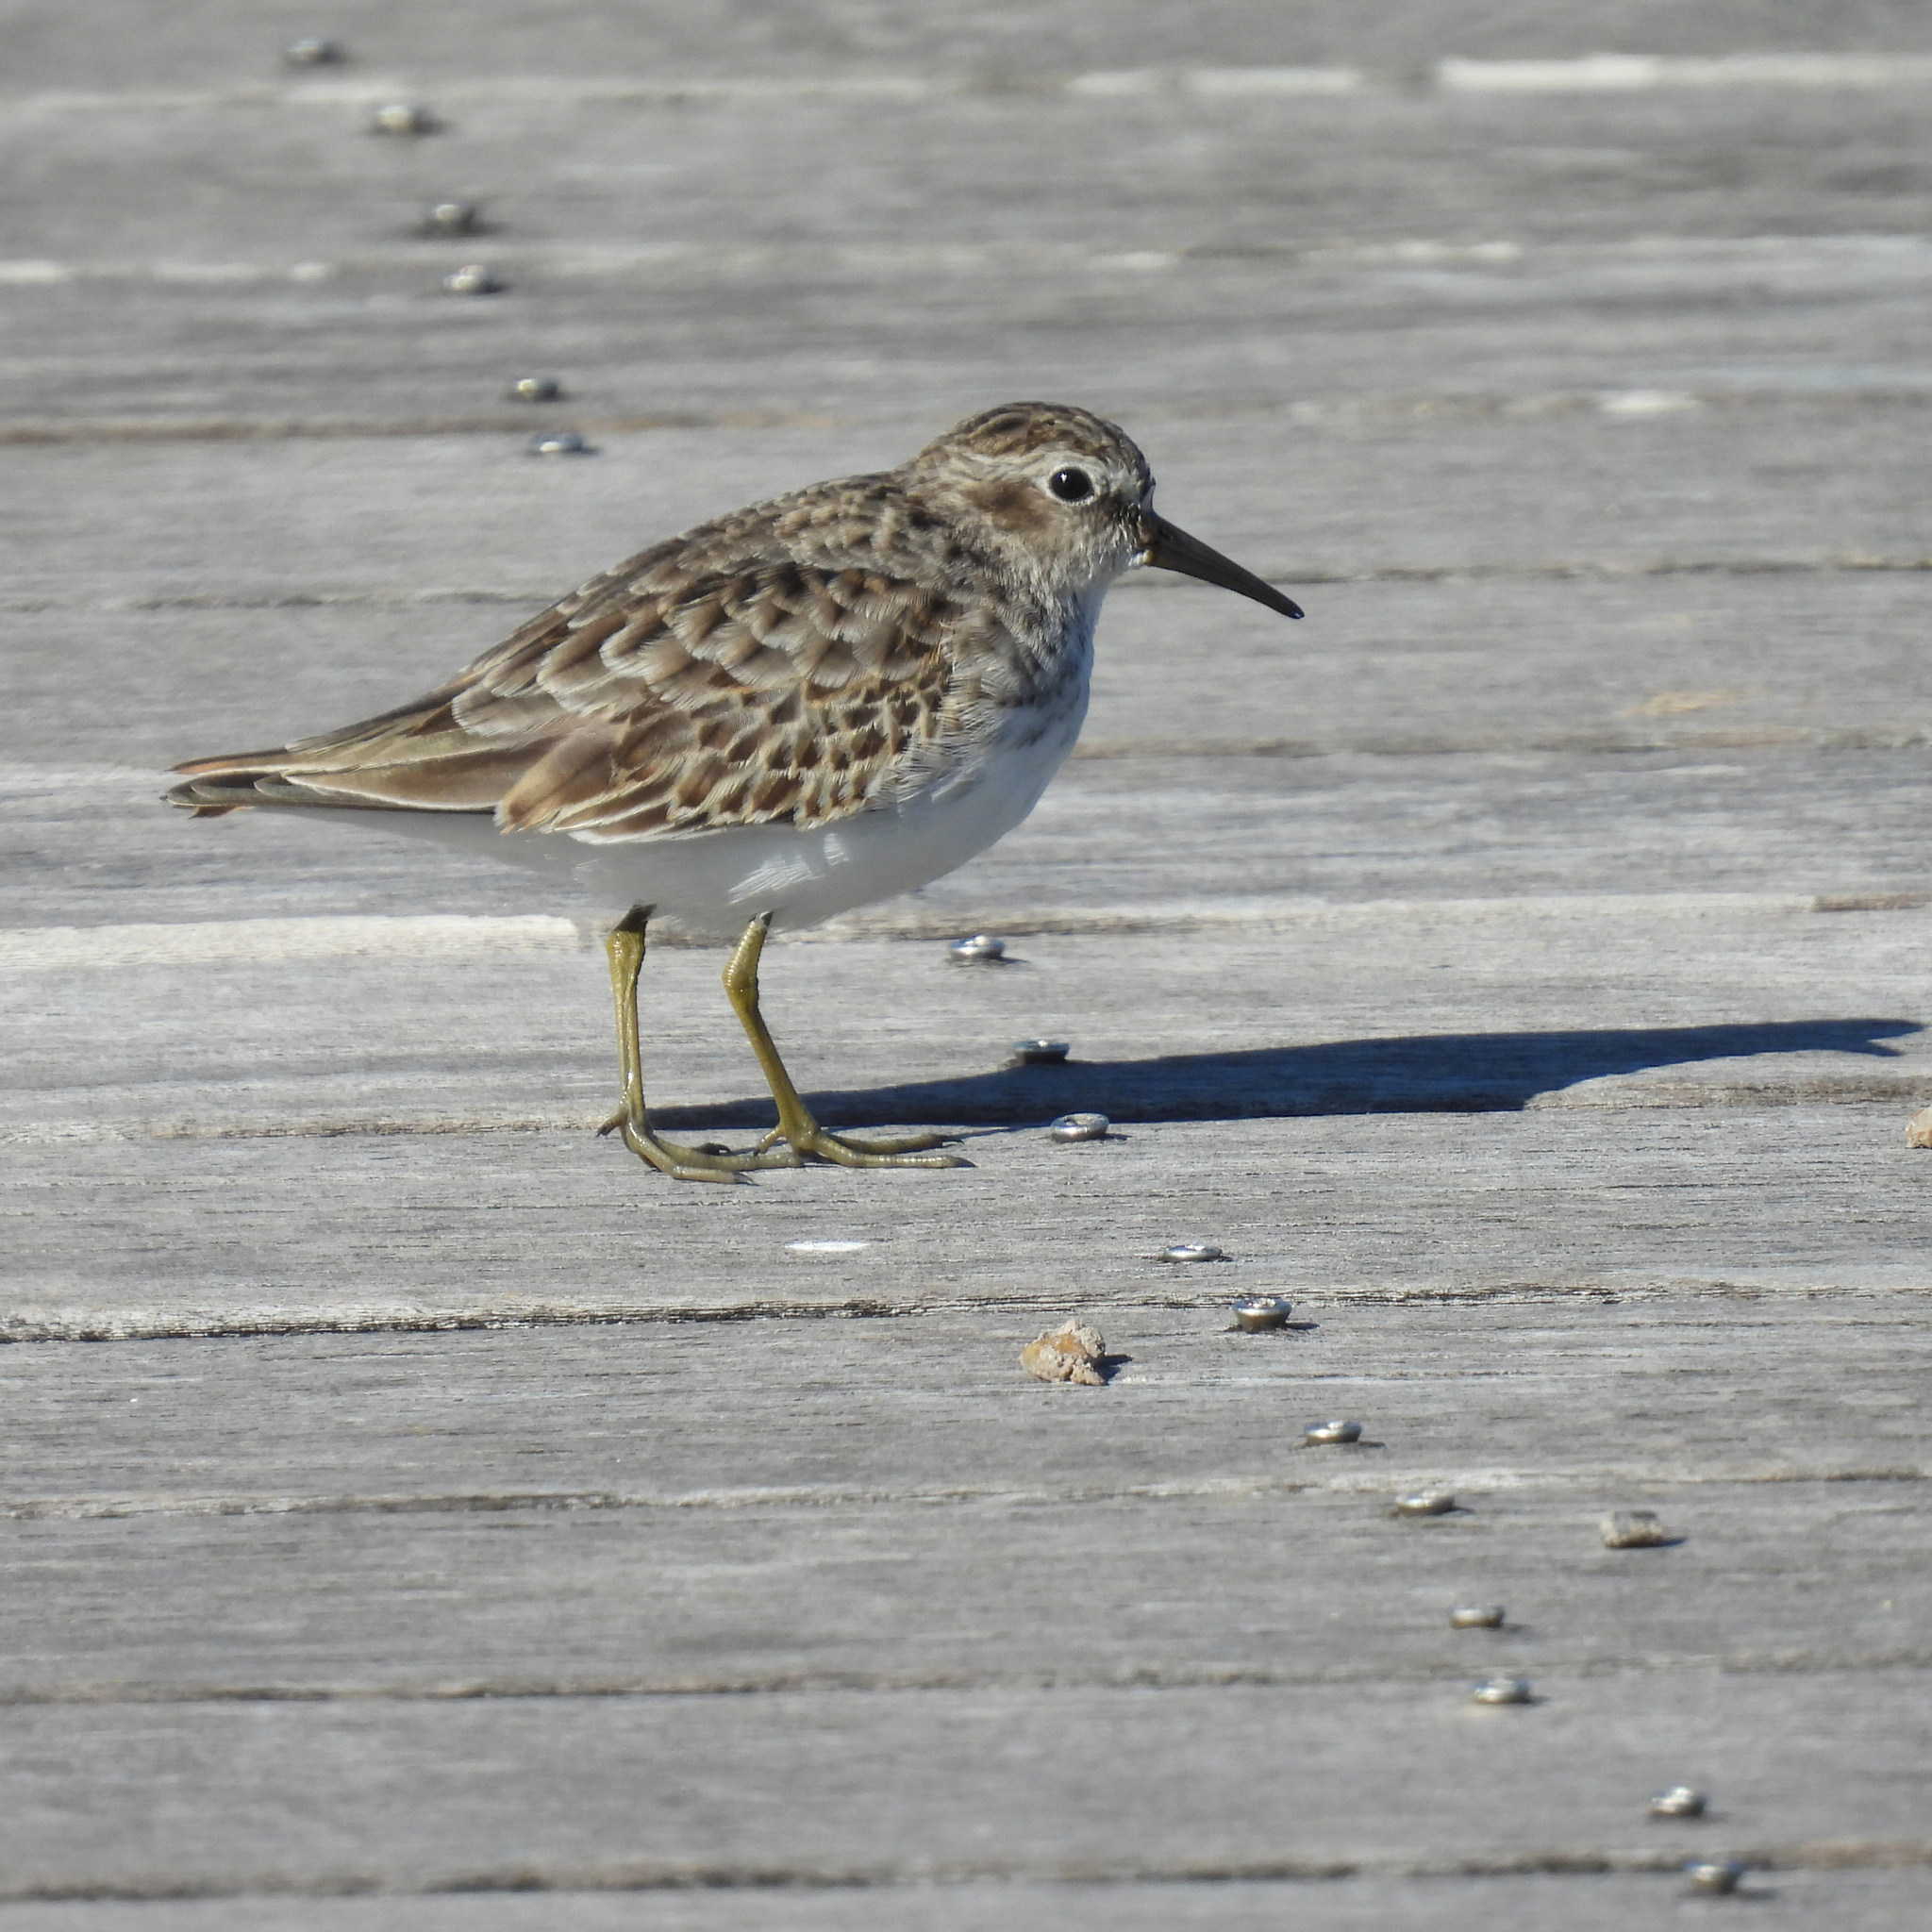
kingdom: Animalia
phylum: Chordata
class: Aves
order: Charadriiformes
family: Scolopacidae
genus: Calidris
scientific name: Calidris minutilla
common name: Least sandpiper
